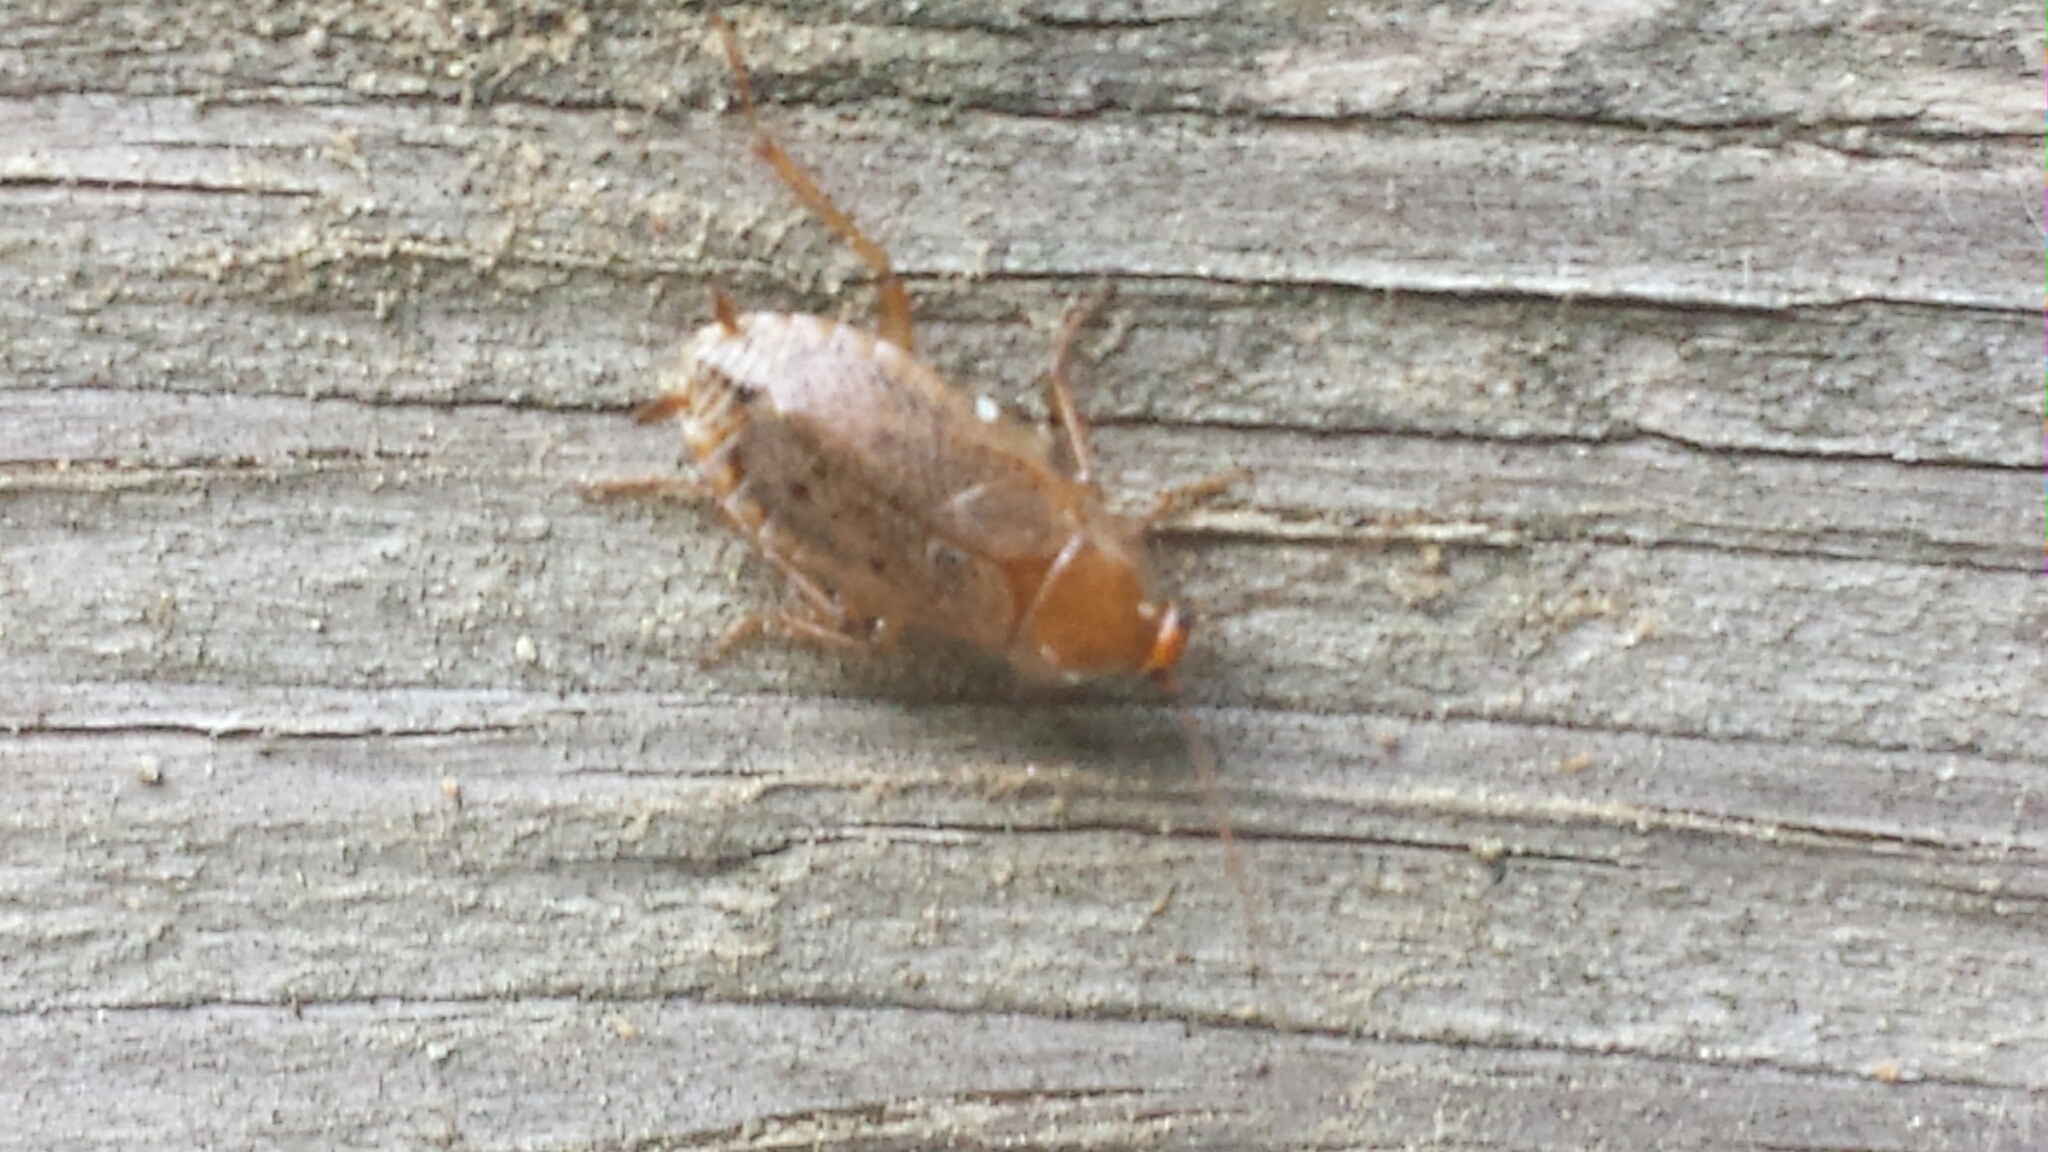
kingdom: Animalia
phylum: Arthropoda
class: Insecta
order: Blattodea
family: Ectobiidae
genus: Ectobius
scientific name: Ectobius lapponicus
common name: Dusky cockroach
